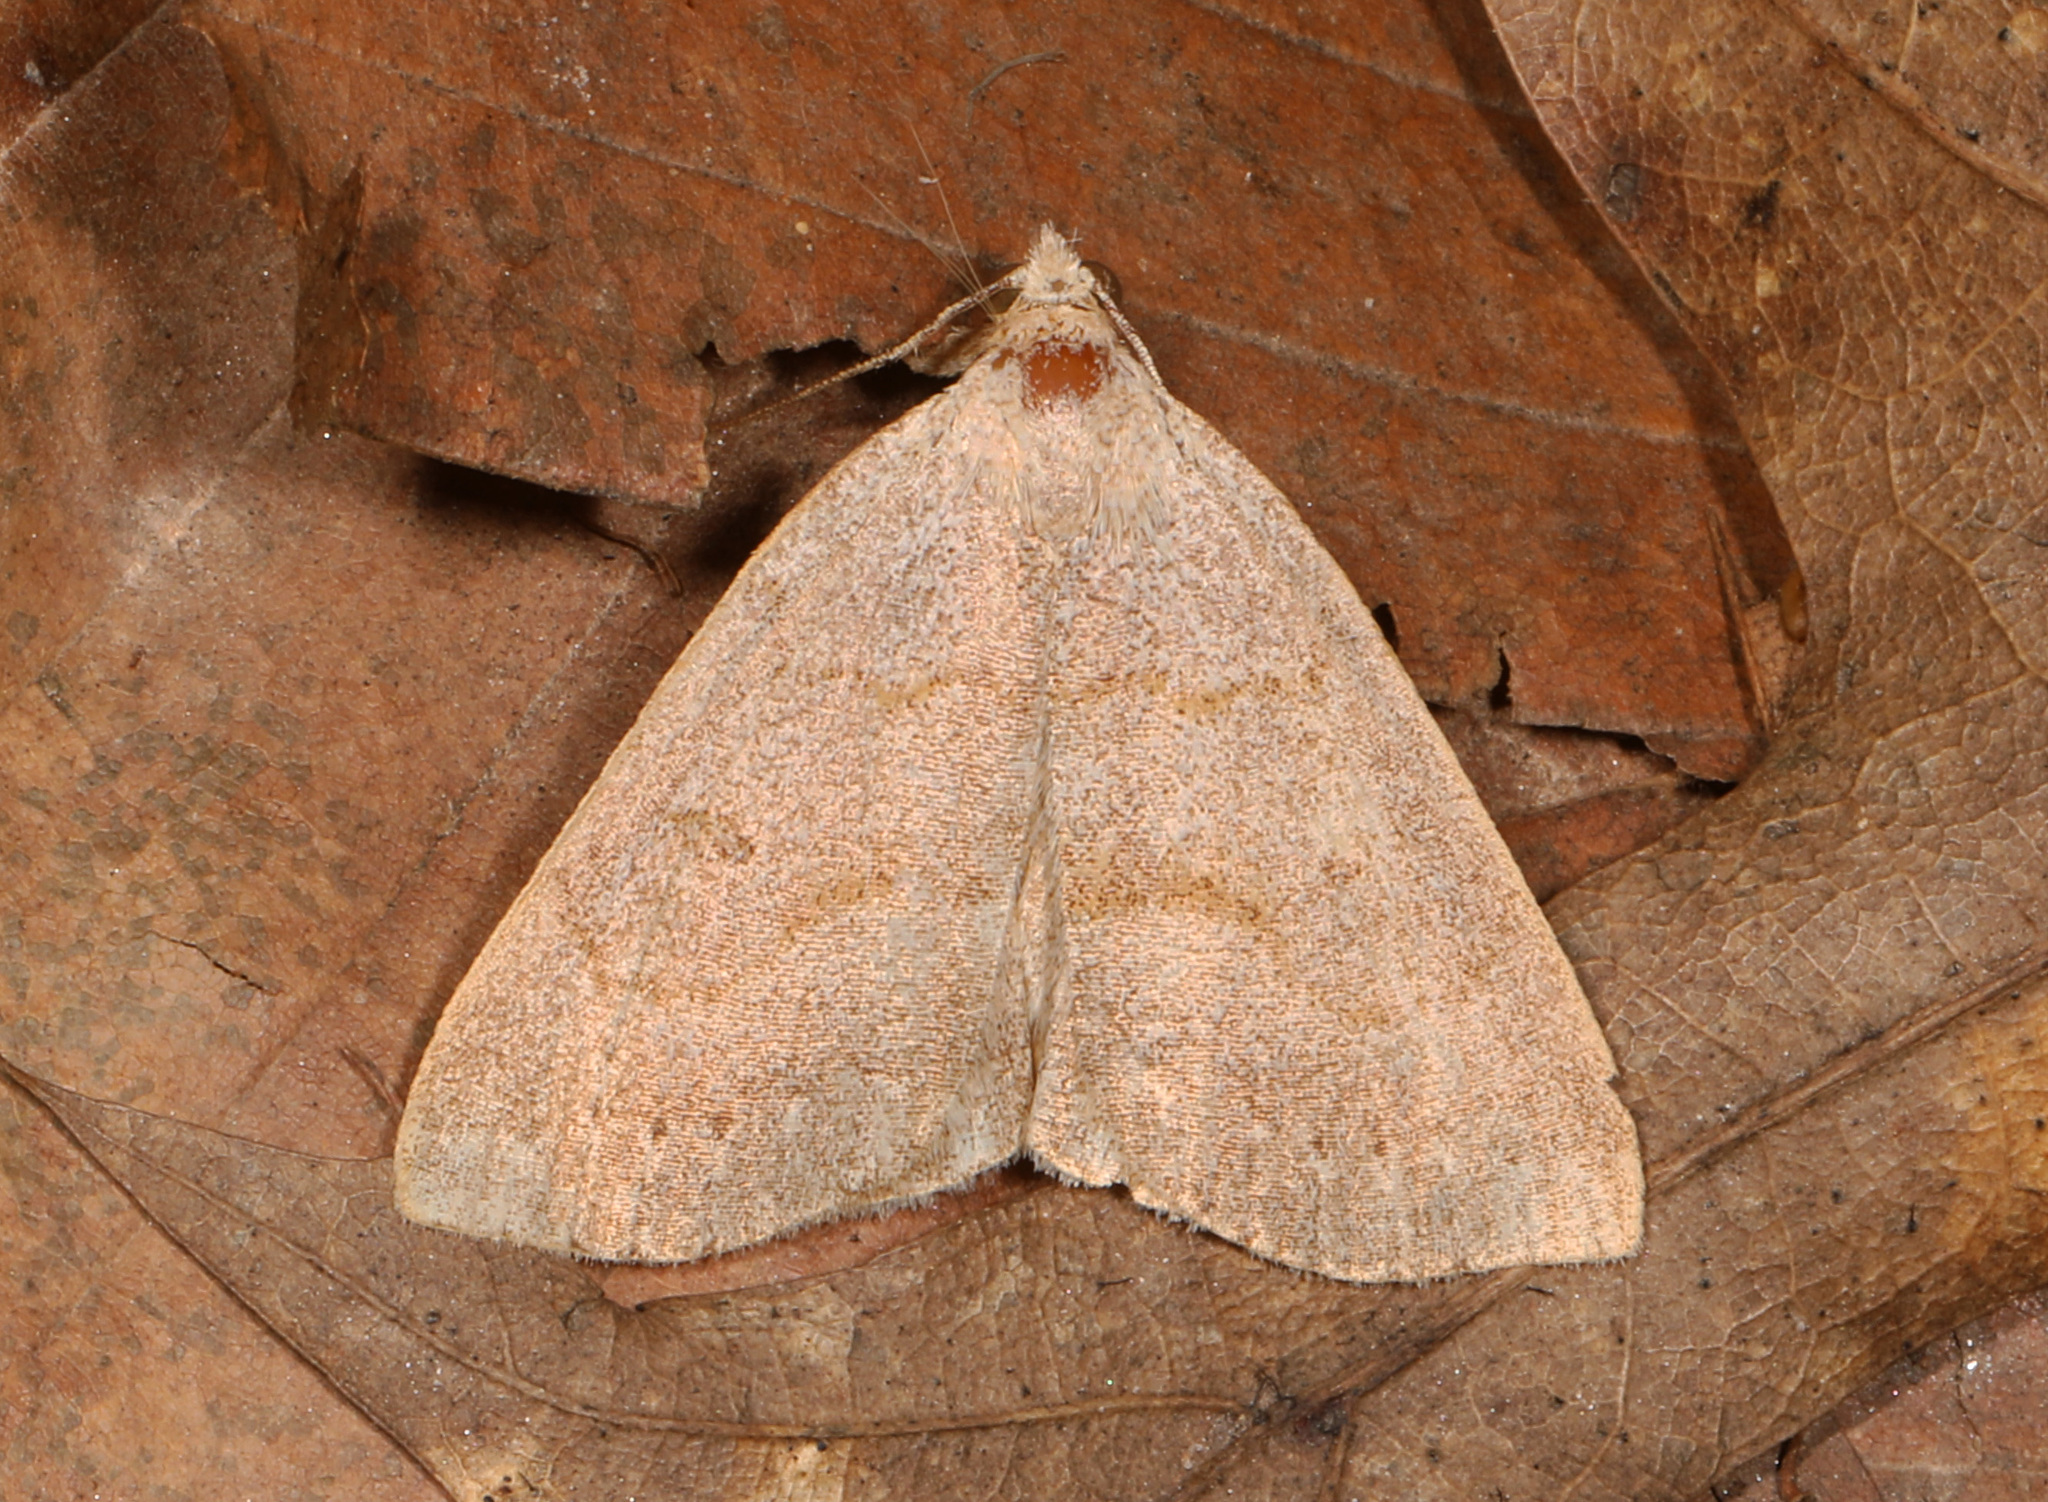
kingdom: Animalia
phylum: Arthropoda
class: Insecta
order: Lepidoptera
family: Erebidae
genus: Macrochilo
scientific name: Macrochilo morbidalis
